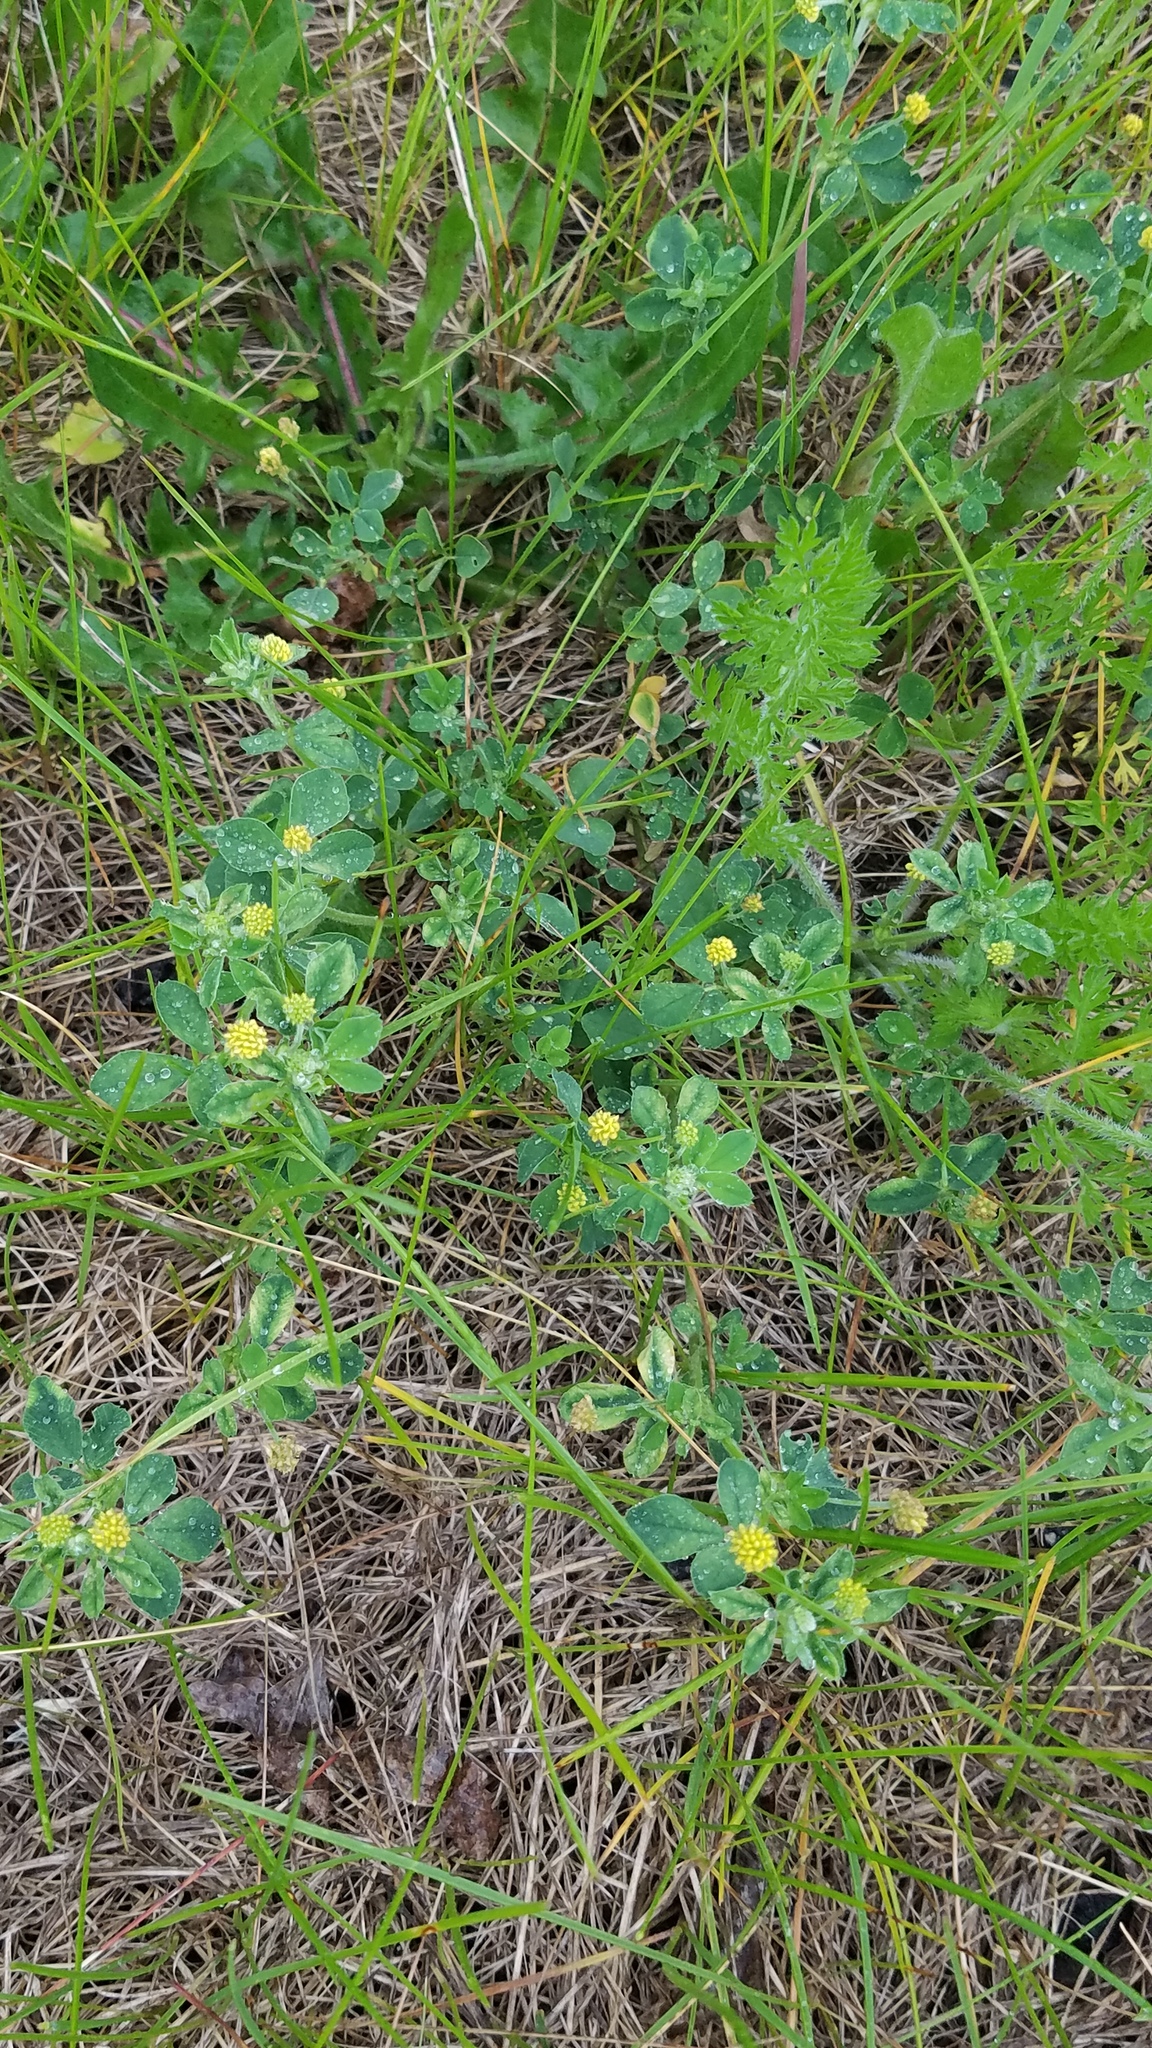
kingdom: Plantae
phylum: Tracheophyta
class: Magnoliopsida
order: Fabales
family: Fabaceae
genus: Medicago
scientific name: Medicago lupulina
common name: Black medick
